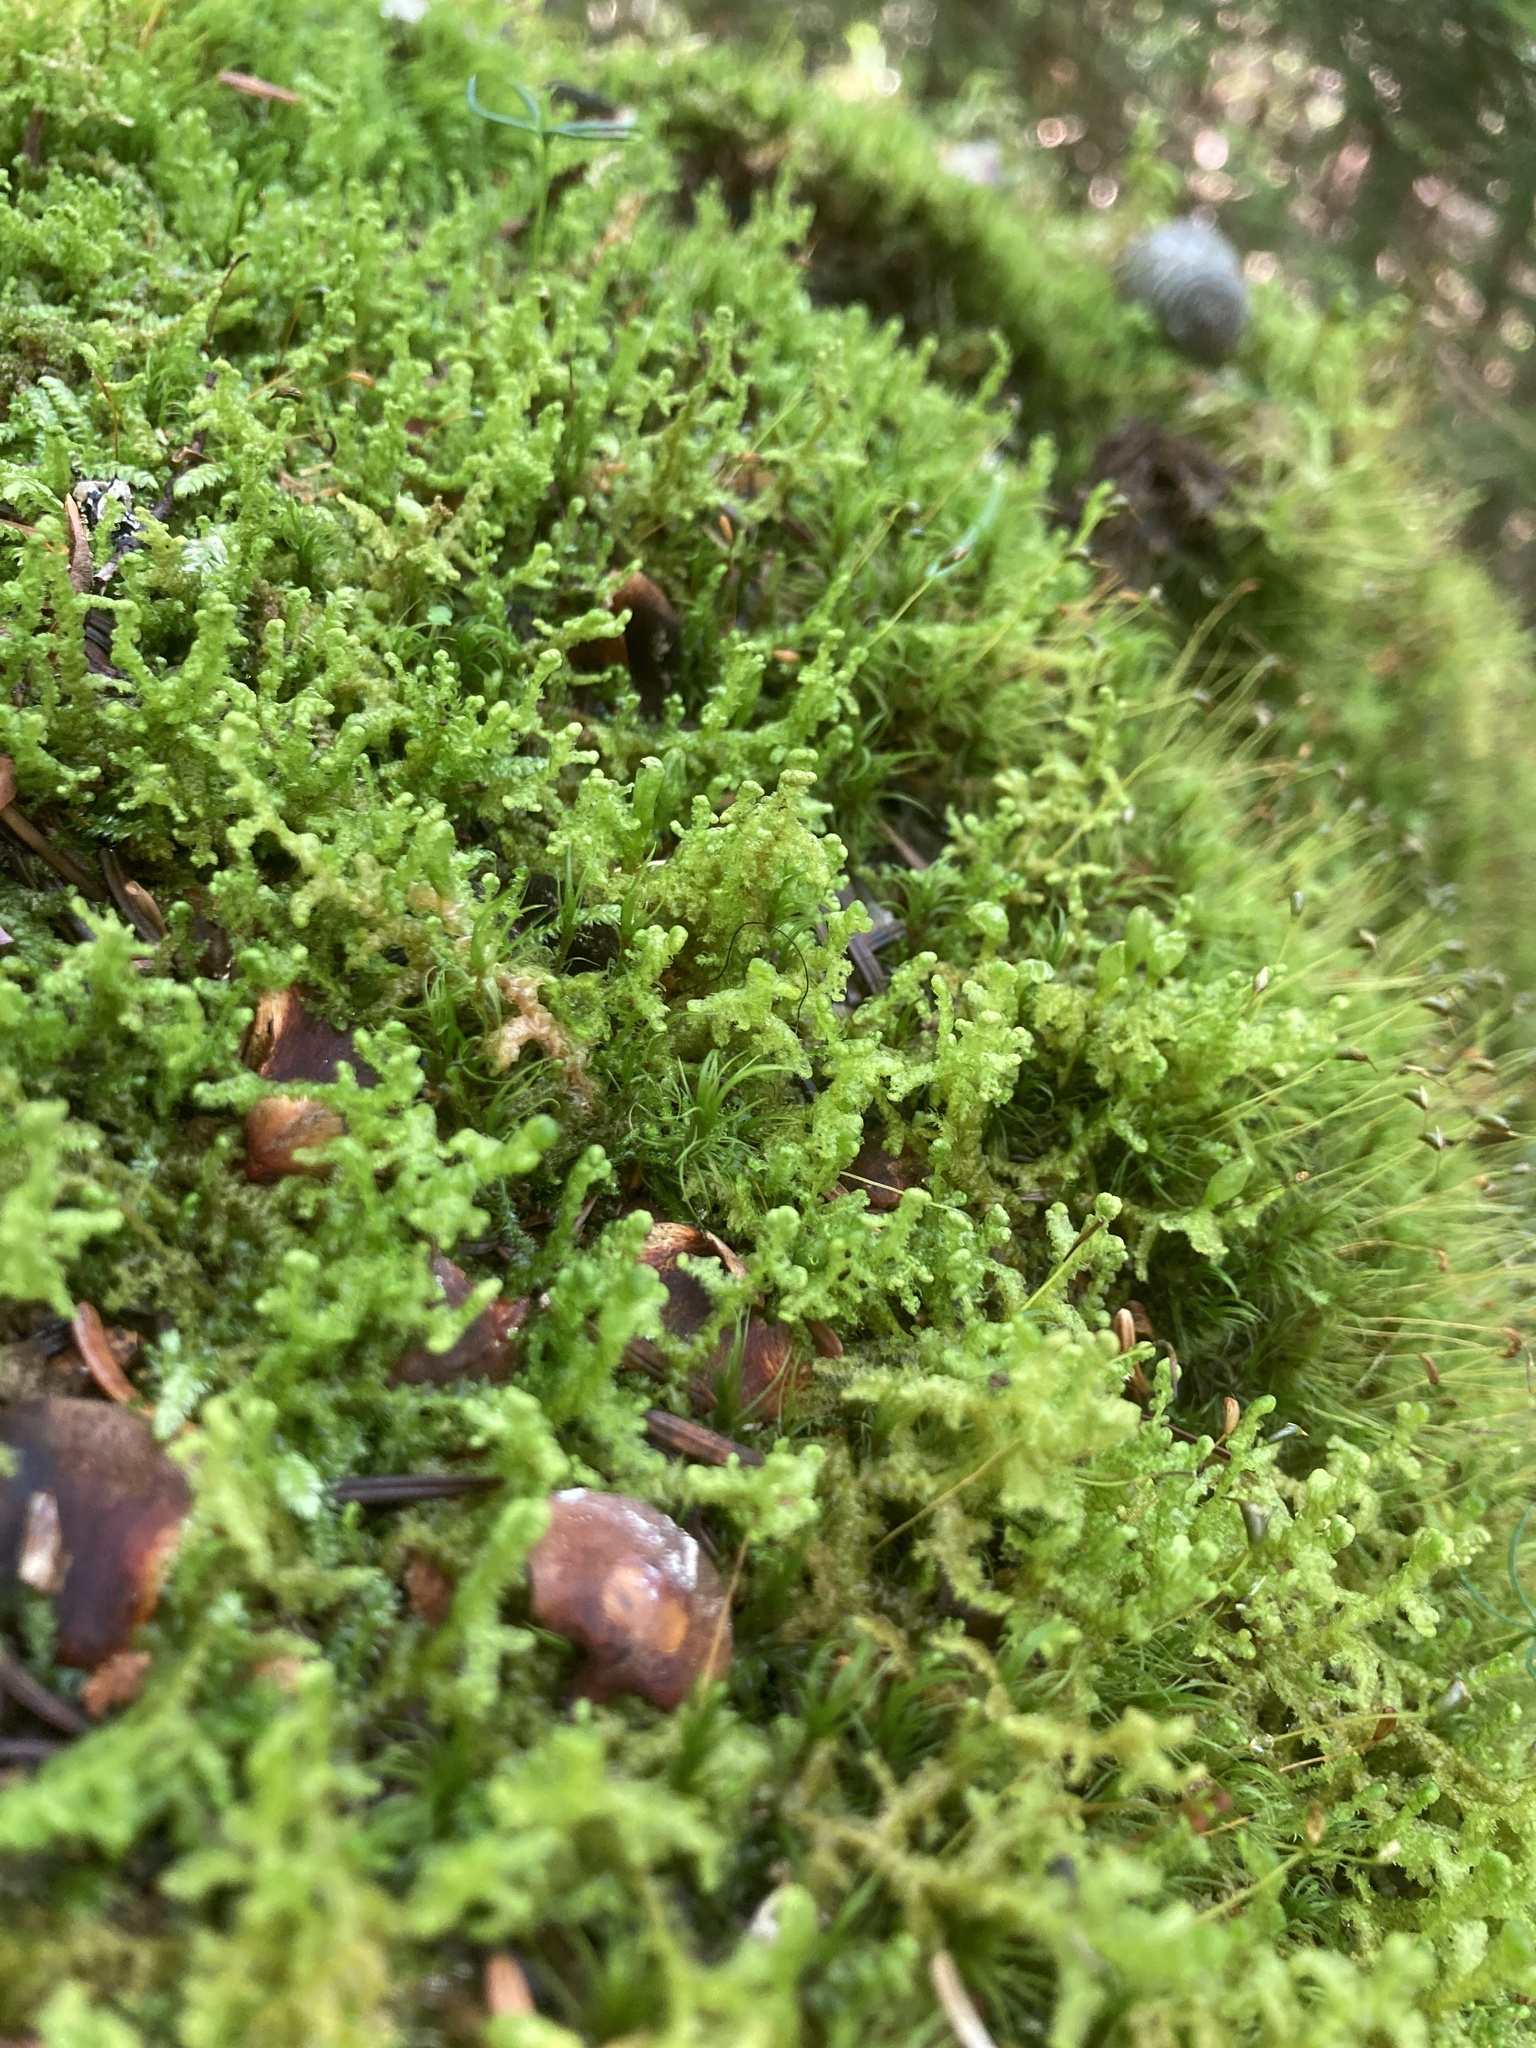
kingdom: Plantae
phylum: Marchantiophyta
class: Jungermanniopsida
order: Ptilidiales
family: Ptilidiaceae
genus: Ptilidium
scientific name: Ptilidium ciliare
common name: Ciliate fringewort
